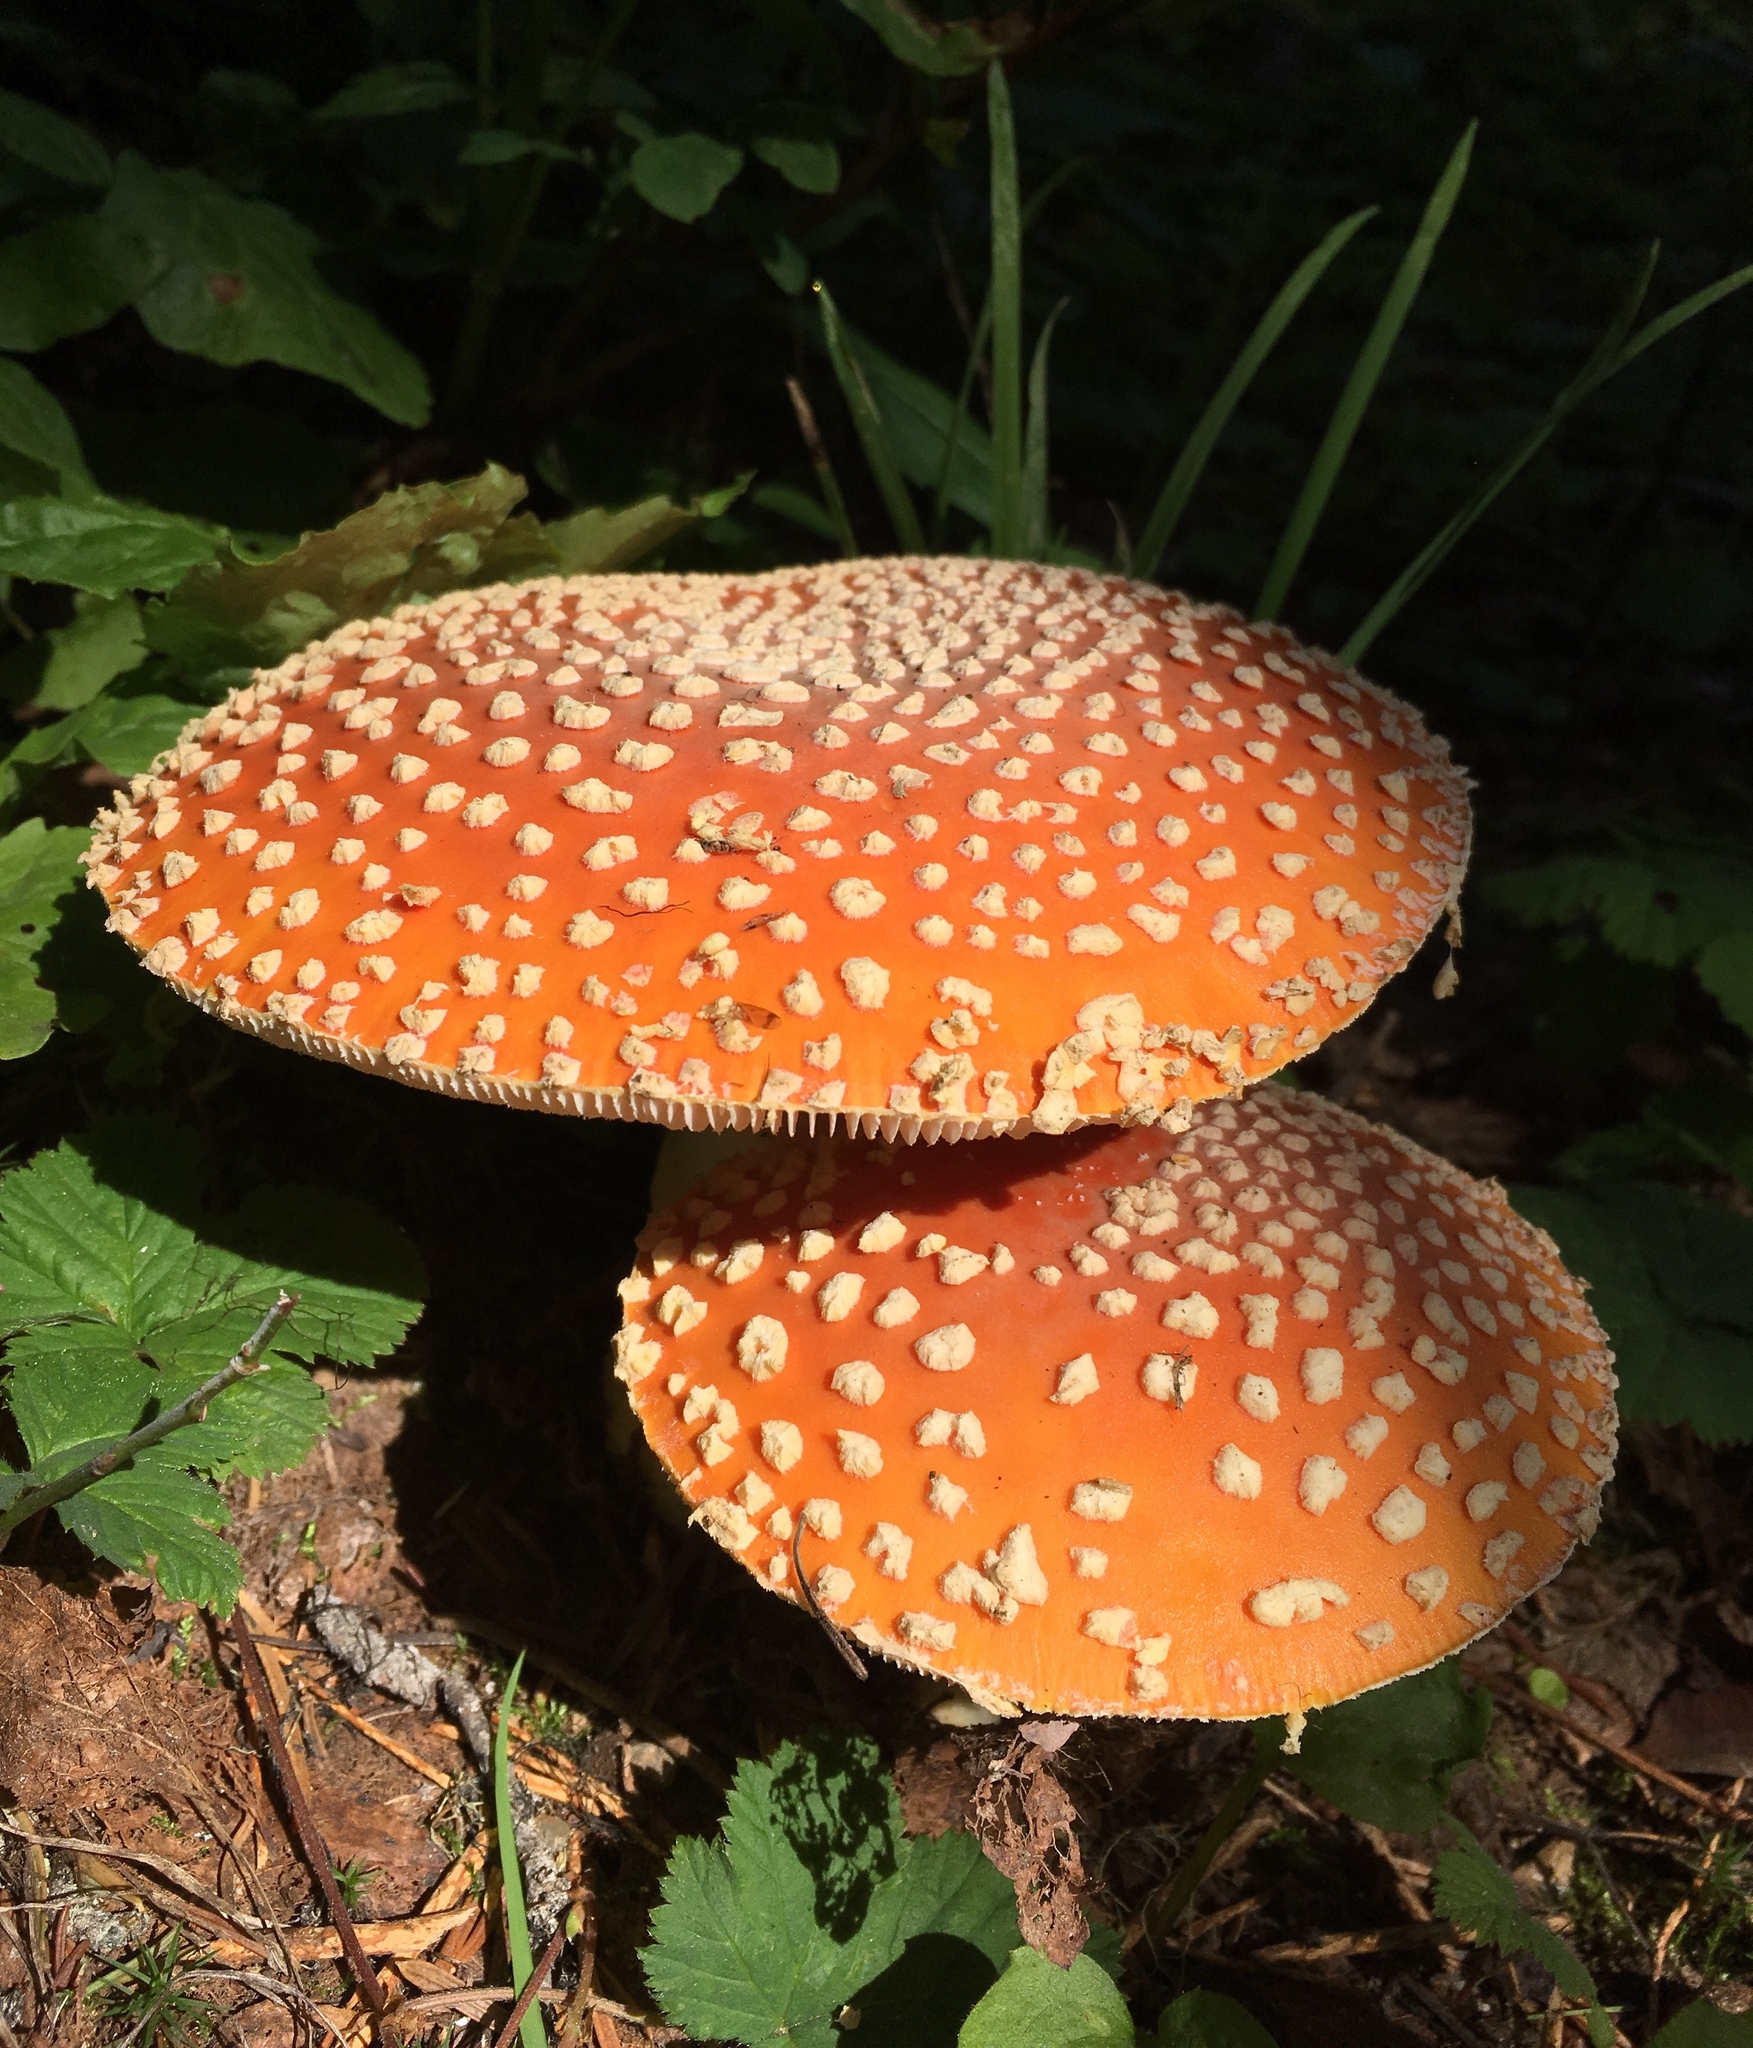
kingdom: Fungi
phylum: Basidiomycota
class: Agaricomycetes
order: Agaricales
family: Amanitaceae
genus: Amanita
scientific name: Amanita muscaria
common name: Fly agaric
